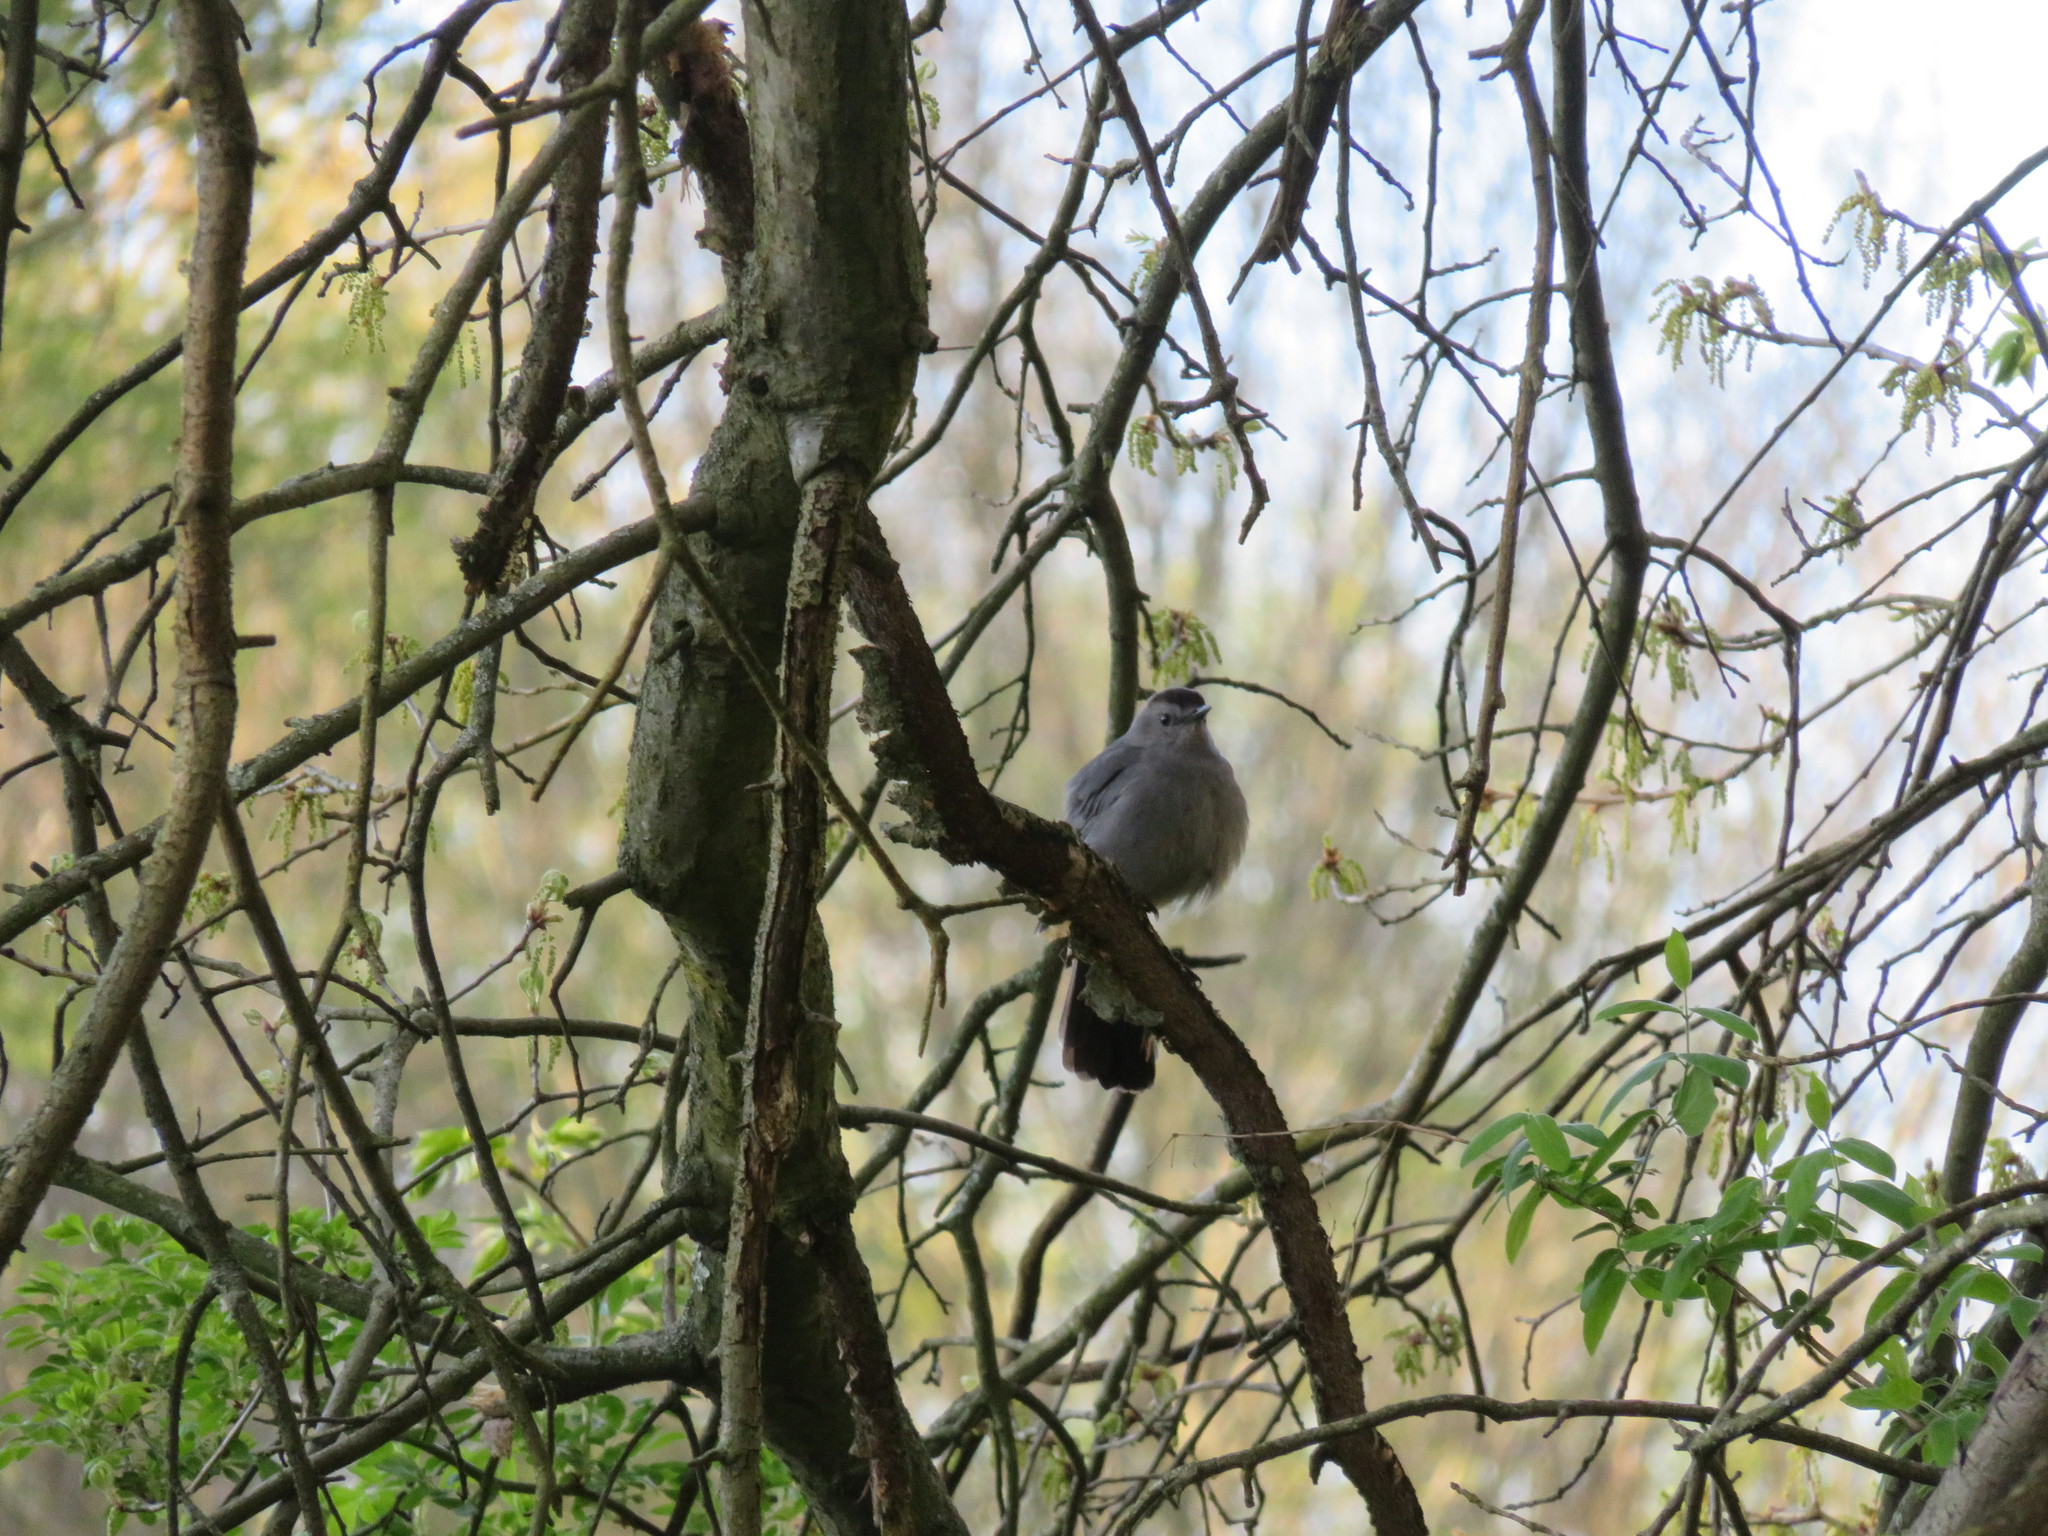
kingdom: Animalia
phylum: Chordata
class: Aves
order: Passeriformes
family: Mimidae
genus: Dumetella
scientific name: Dumetella carolinensis
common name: Gray catbird
